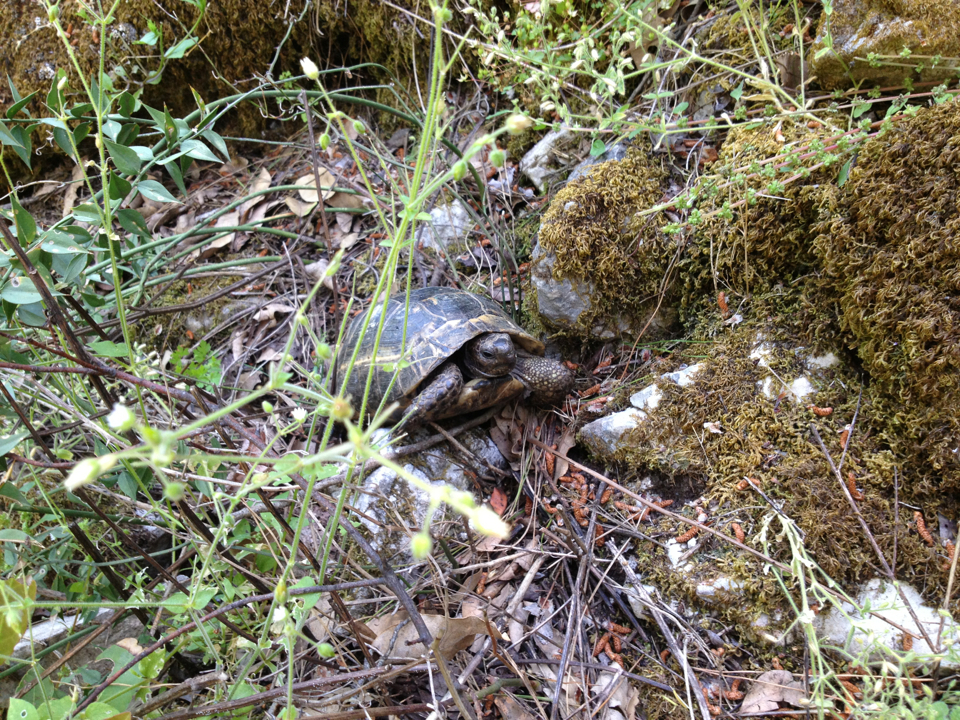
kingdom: Animalia
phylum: Chordata
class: Testudines
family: Testudinidae
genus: Testudo
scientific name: Testudo graeca
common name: Common tortoise
